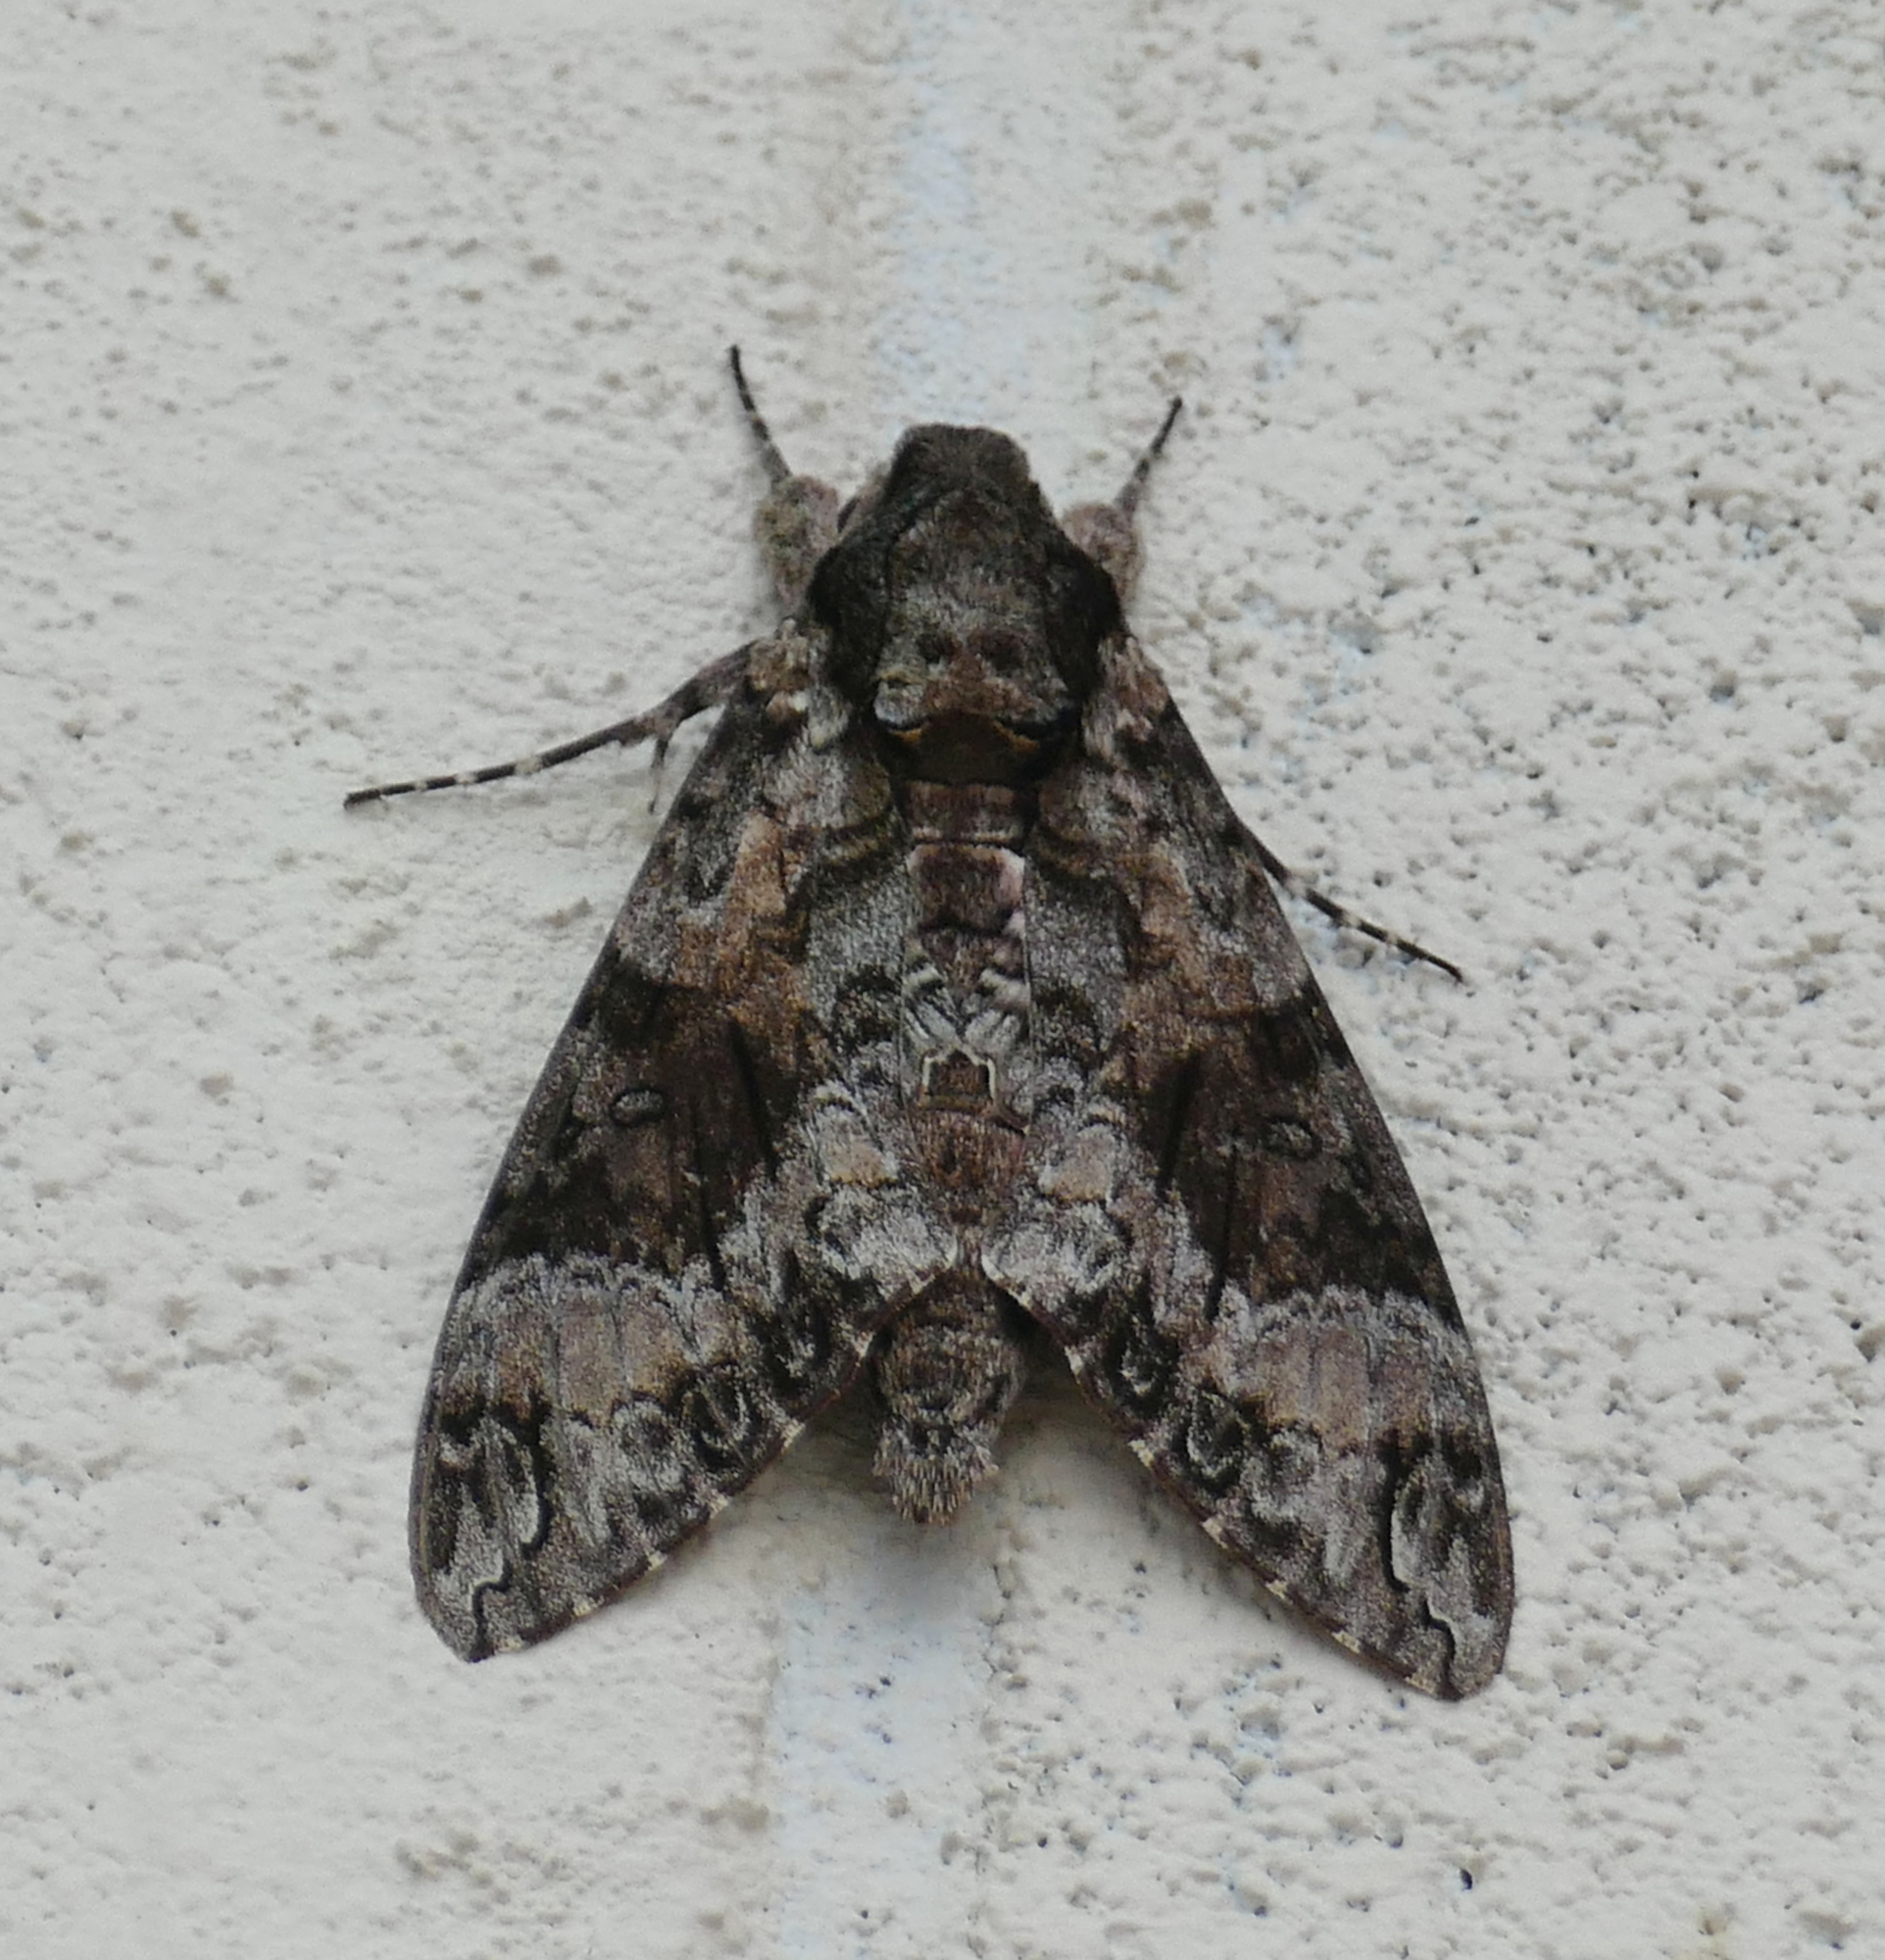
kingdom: Animalia
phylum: Arthropoda
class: Insecta
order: Lepidoptera
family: Sphingidae
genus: Agrius
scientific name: Agrius cingulata
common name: Pink-spotted hawkmoth
